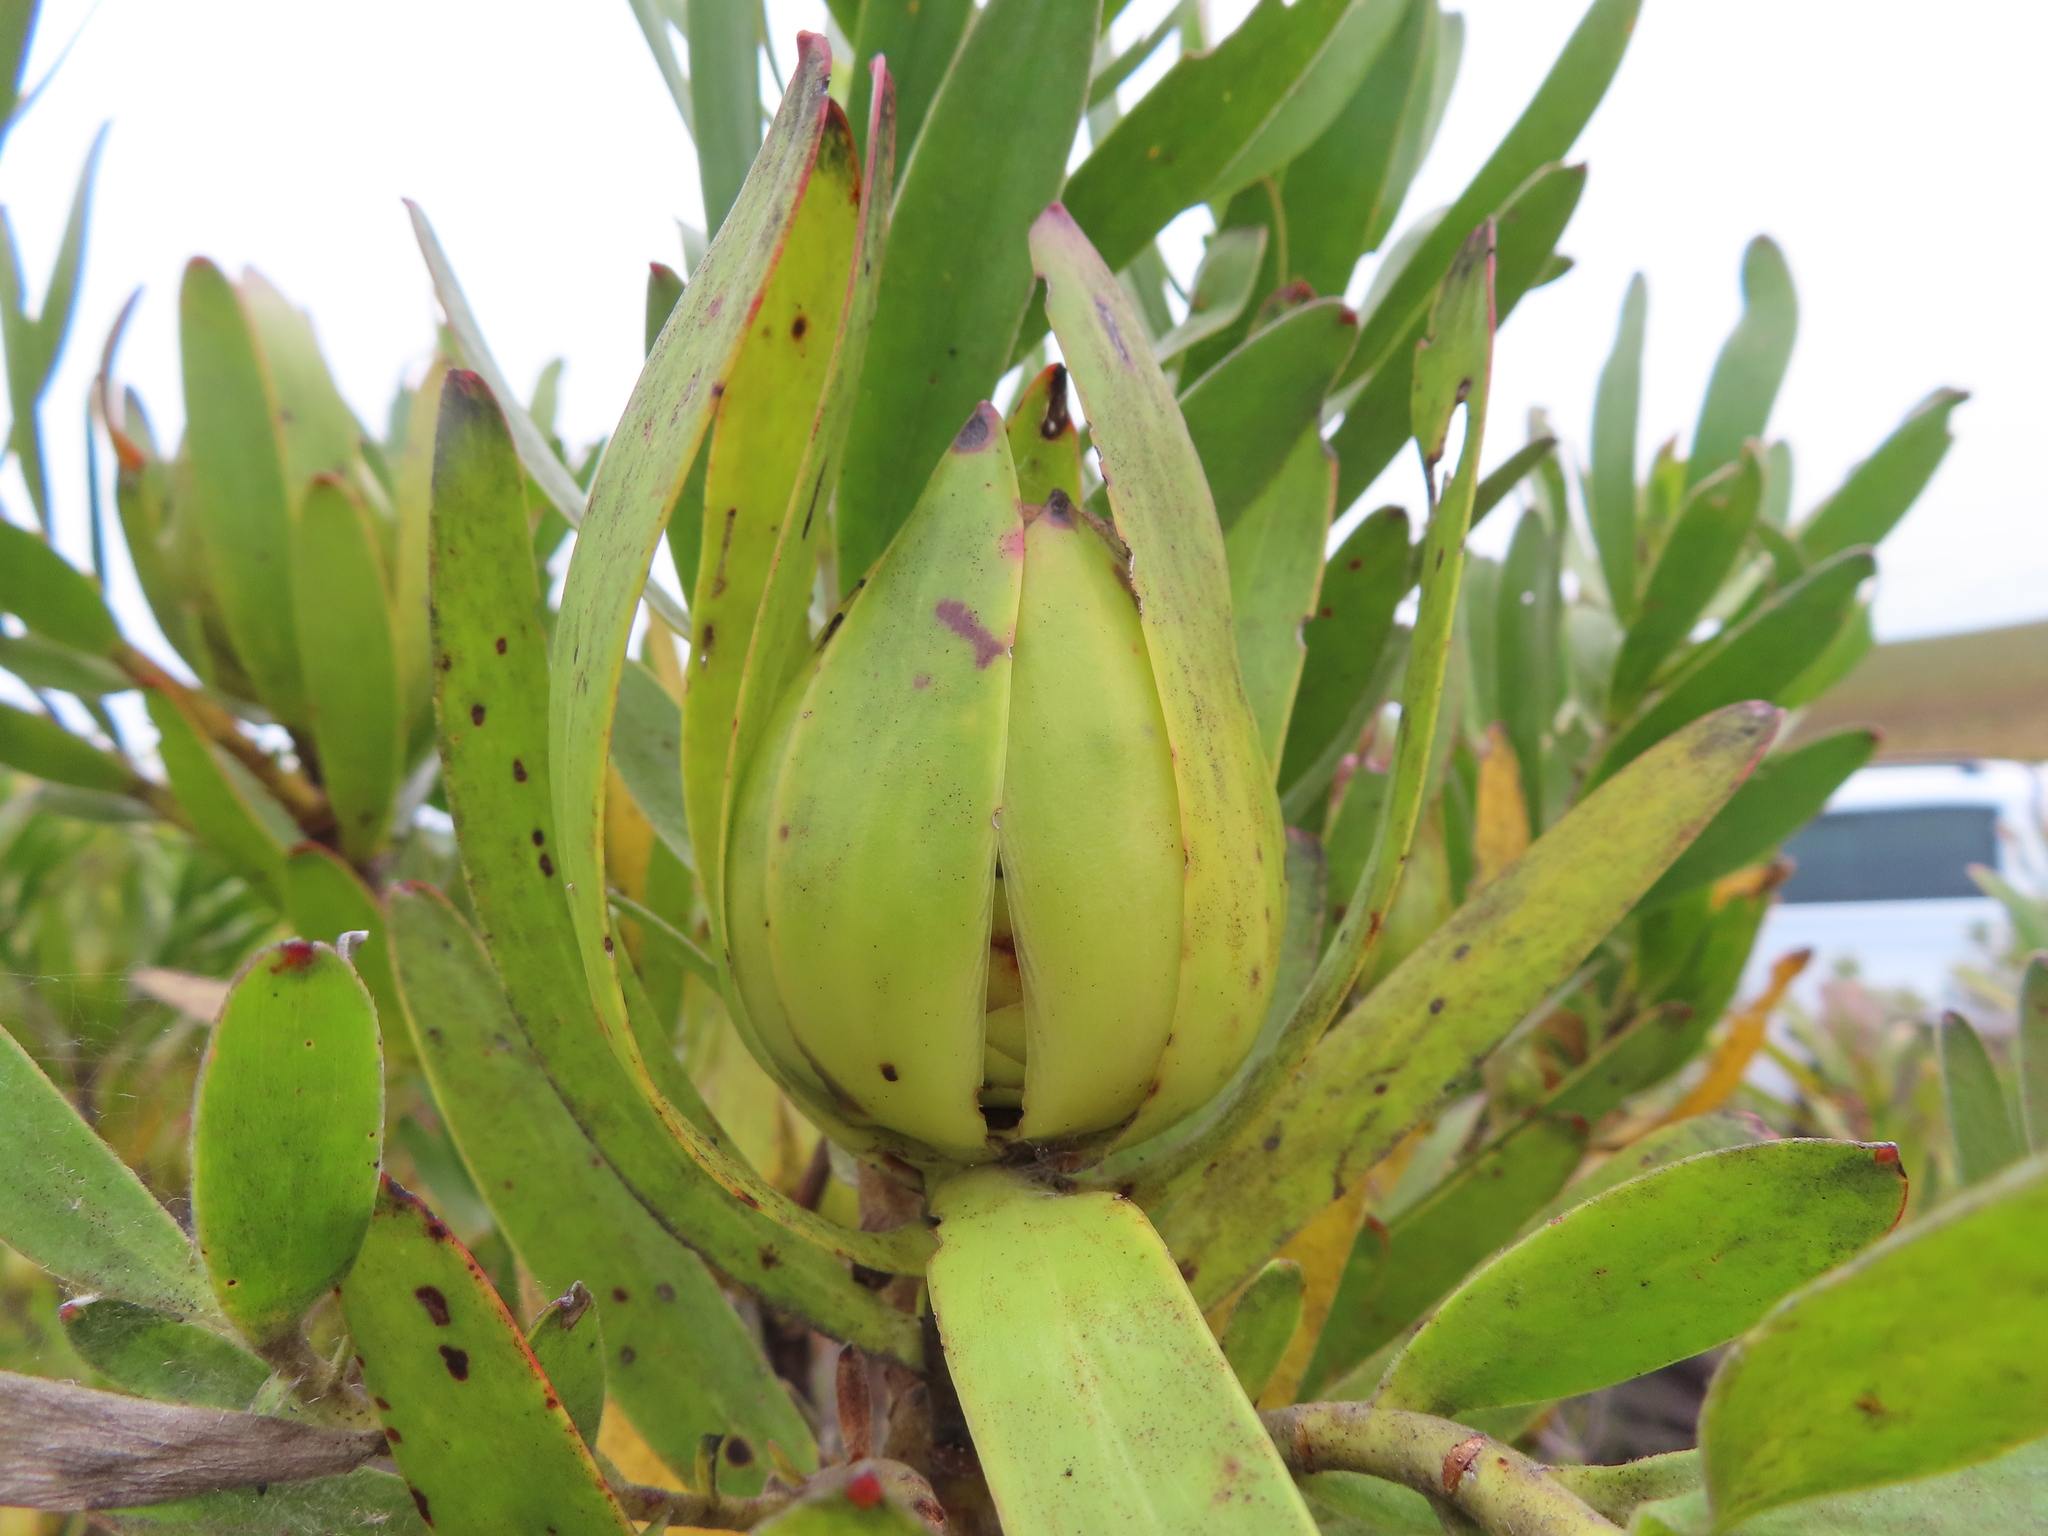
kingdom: Plantae
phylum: Tracheophyta
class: Magnoliopsida
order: Proteales
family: Proteaceae
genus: Leucadendron
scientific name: Leucadendron laureolum
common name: Golden sunshinebush
